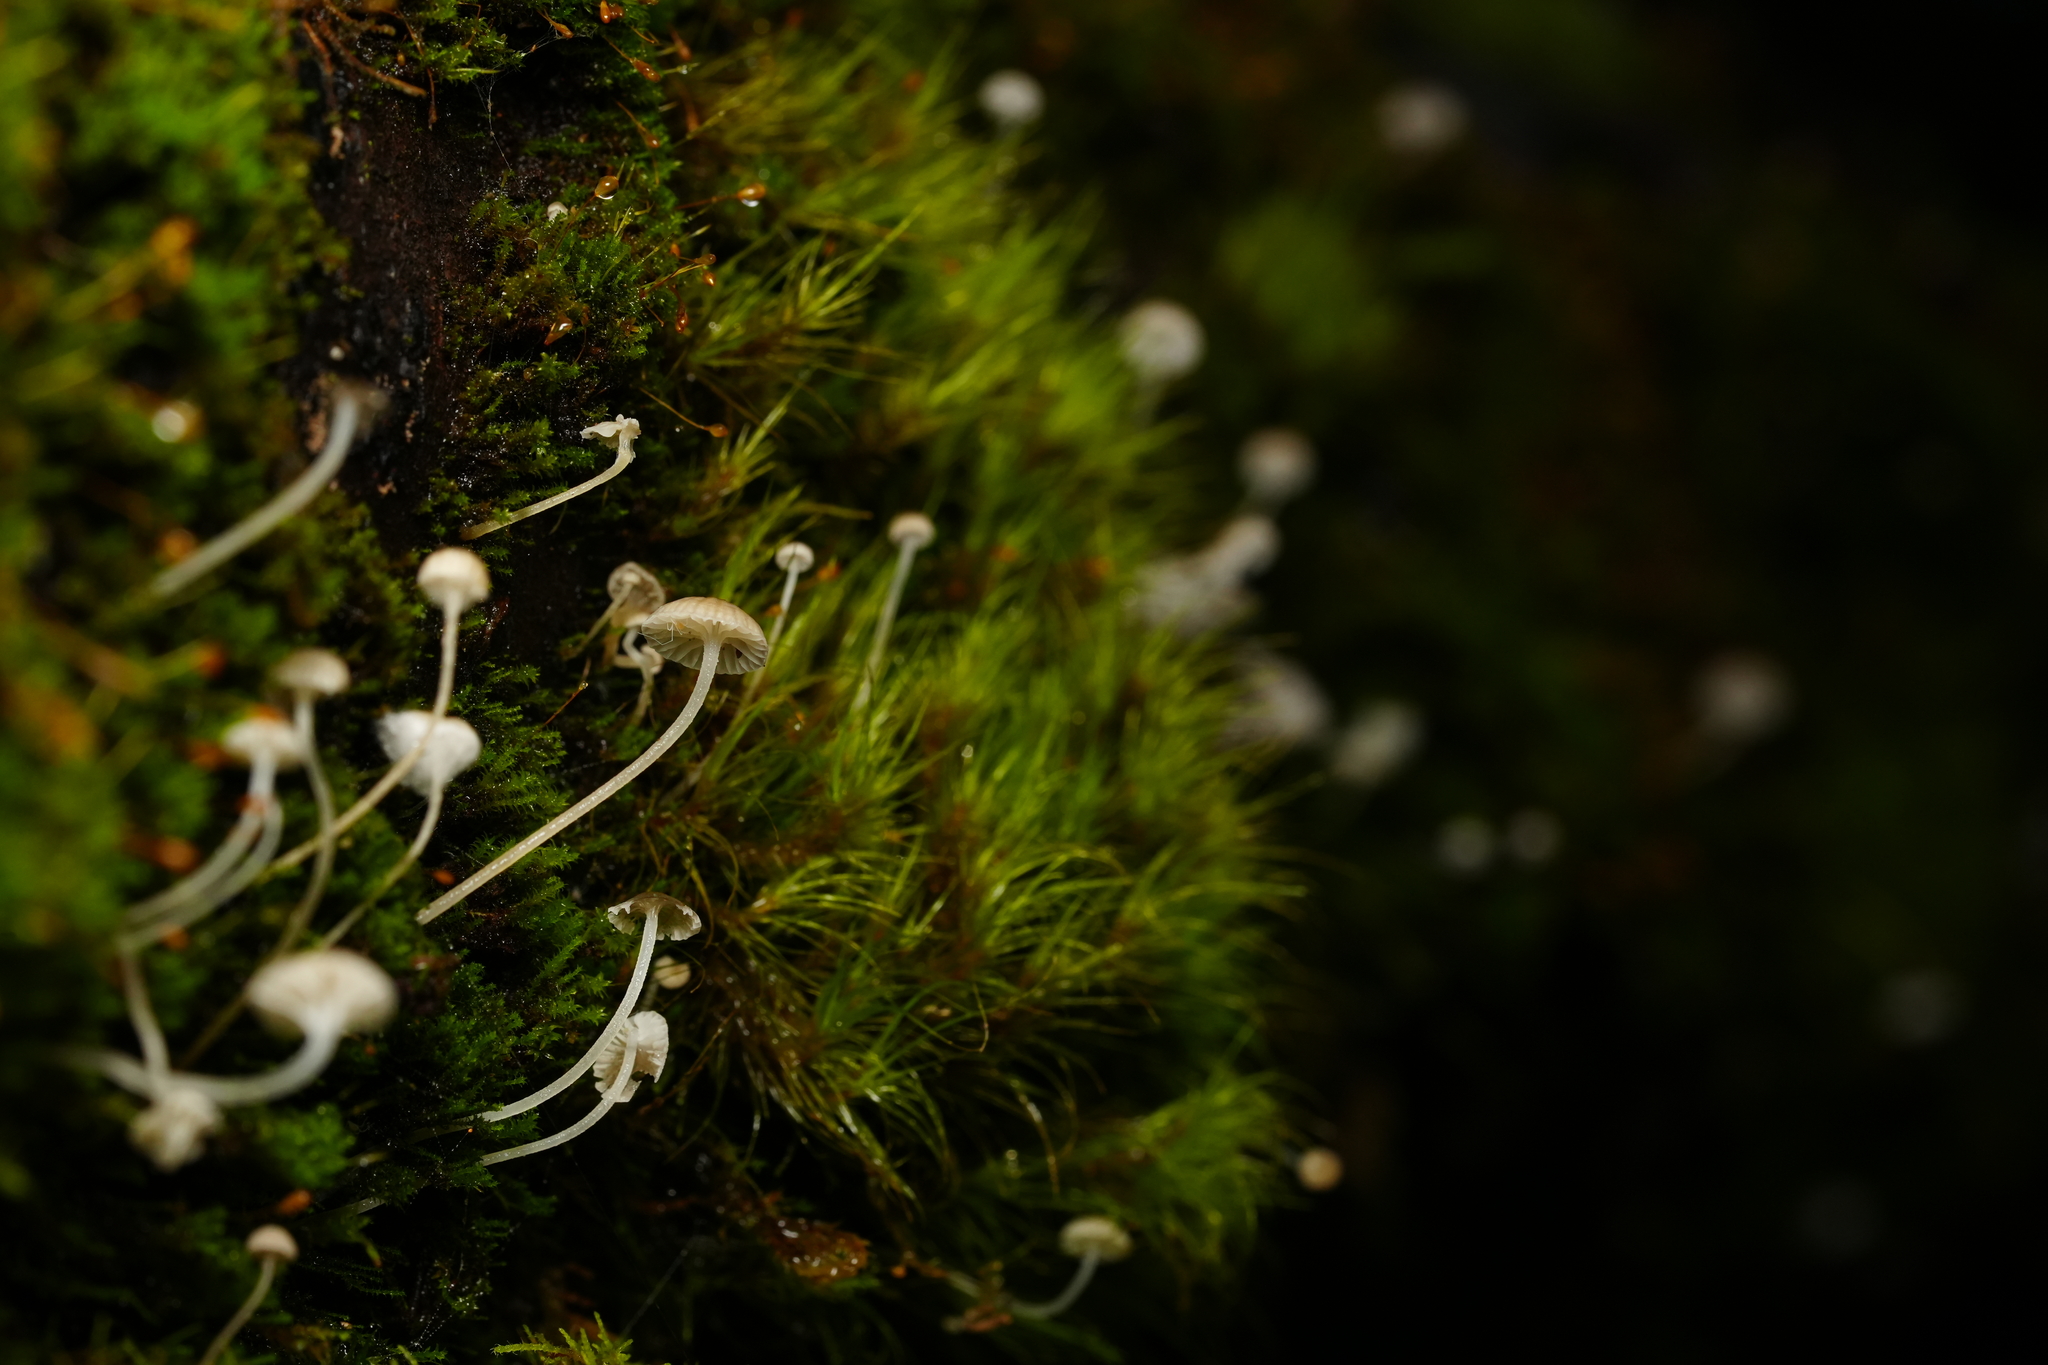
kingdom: Fungi
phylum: Basidiomycota
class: Agaricomycetes
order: Agaricales
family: Mycenaceae
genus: Hemimycena
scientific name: Hemimycena lactea
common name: Milky bonnet
